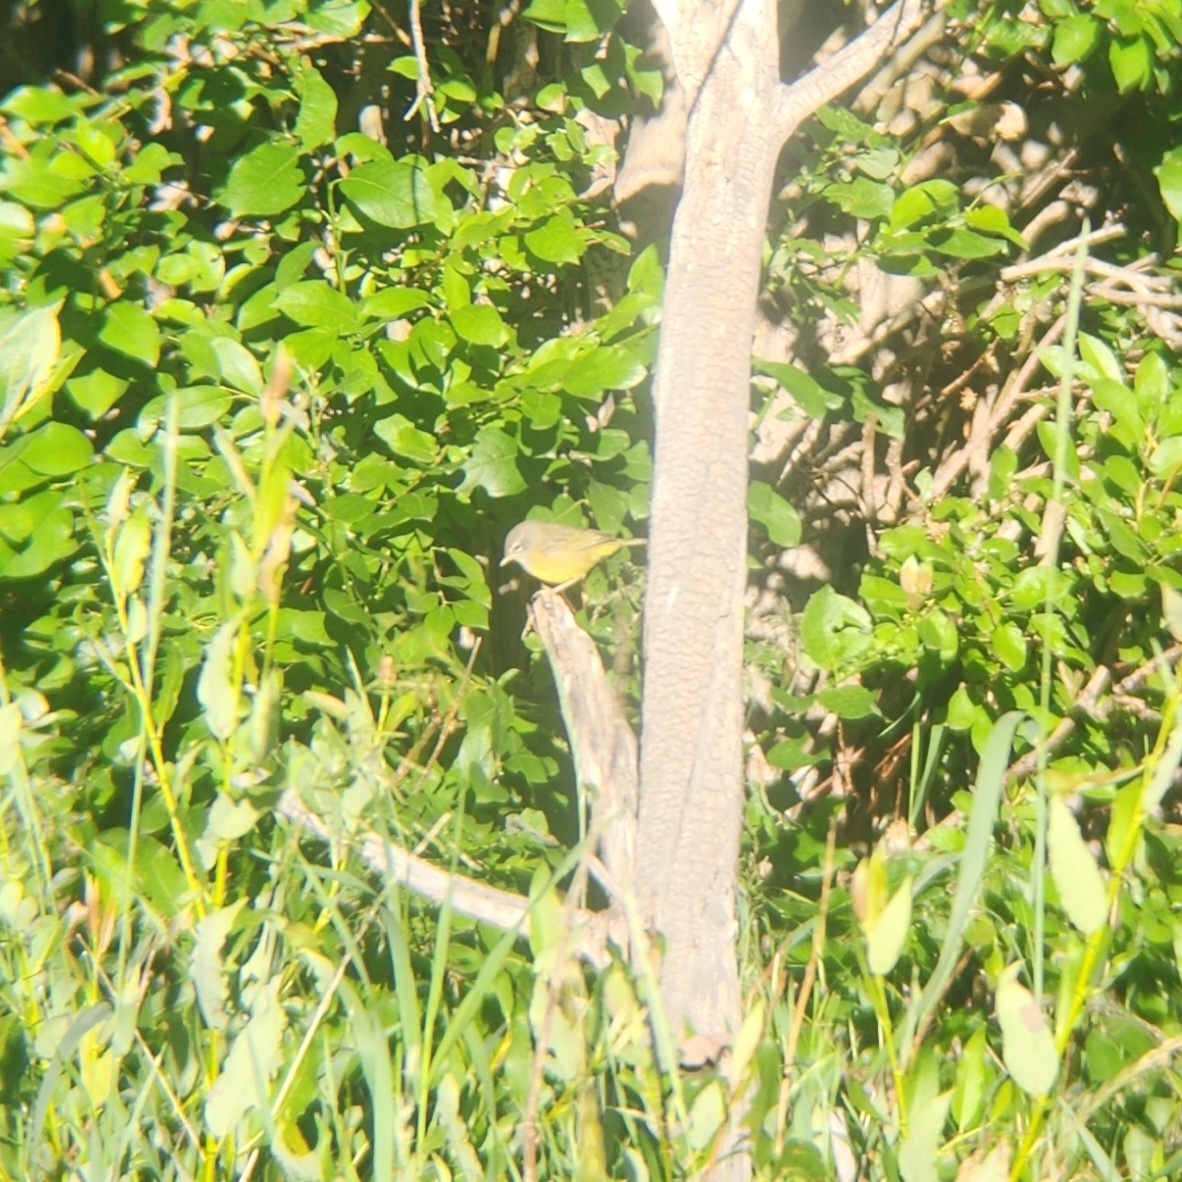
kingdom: Animalia
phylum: Chordata
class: Aves
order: Passeriformes
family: Parulidae
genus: Geothlypis
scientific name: Geothlypis tolmiei
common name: Macgillivray's warbler
